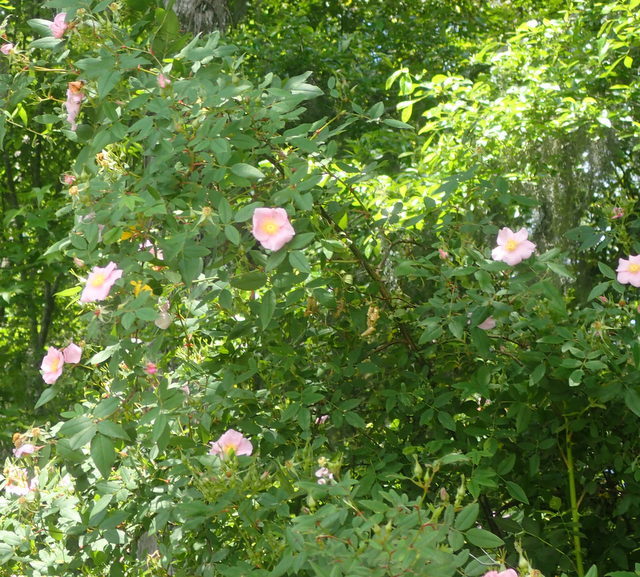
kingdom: Plantae
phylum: Tracheophyta
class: Magnoliopsida
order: Rosales
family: Rosaceae
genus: Rosa
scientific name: Rosa palustris
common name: Swamp rose
